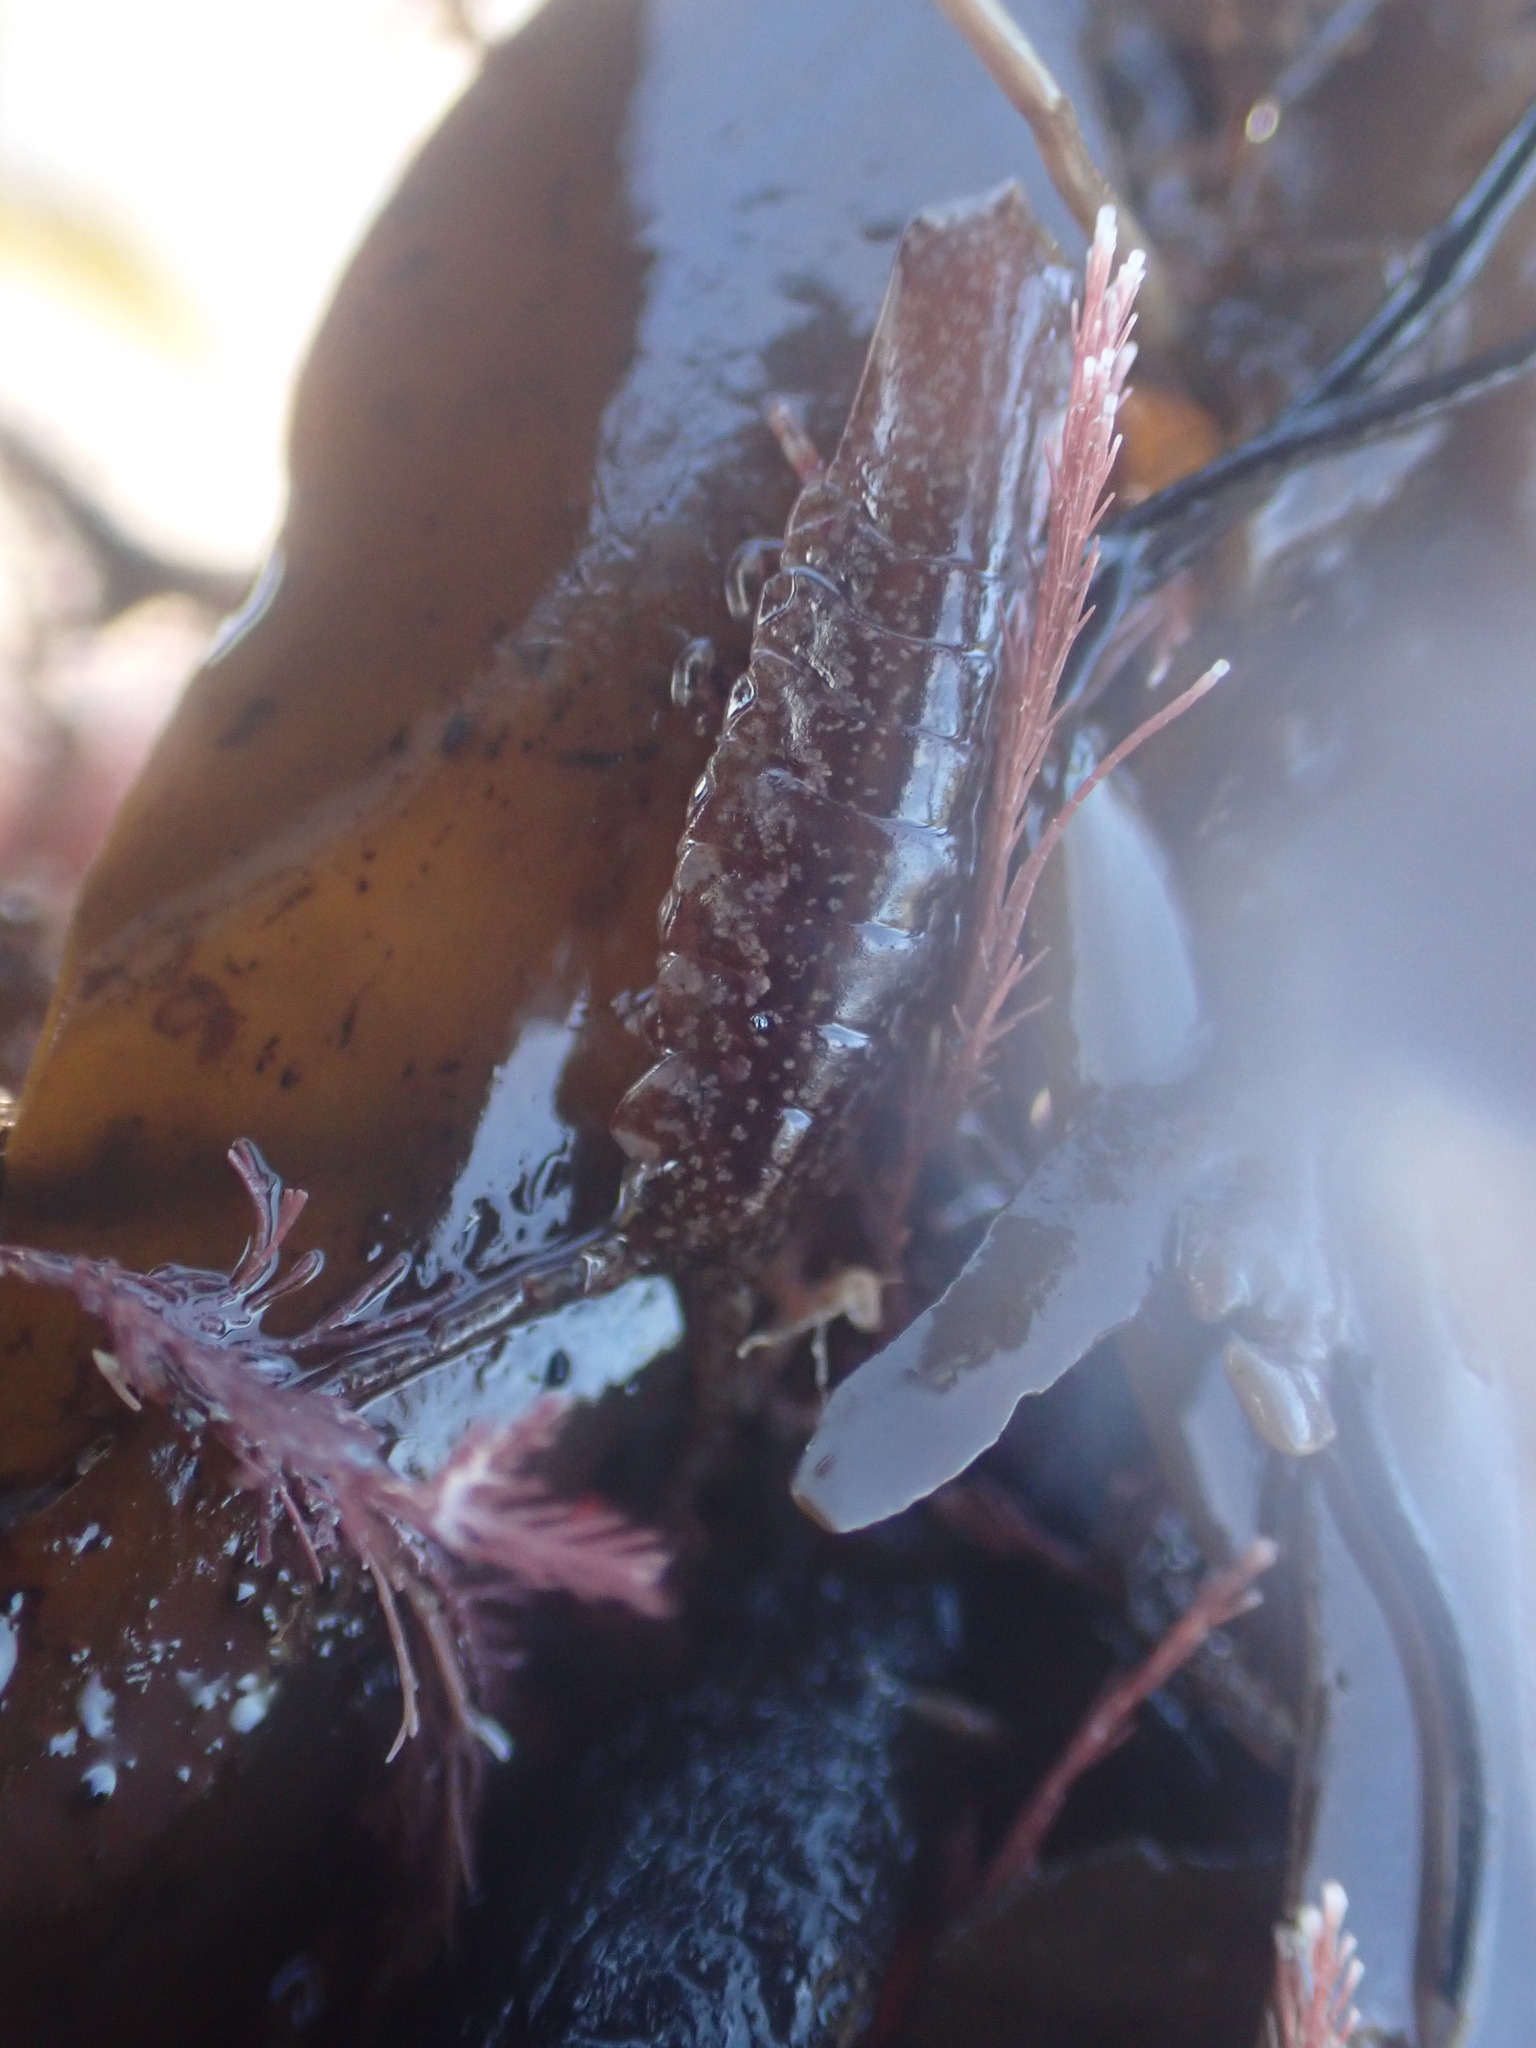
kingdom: Animalia
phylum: Arthropoda
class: Malacostraca
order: Isopoda
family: Idoteidae
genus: Euidotea
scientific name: Euidotea durvillei
